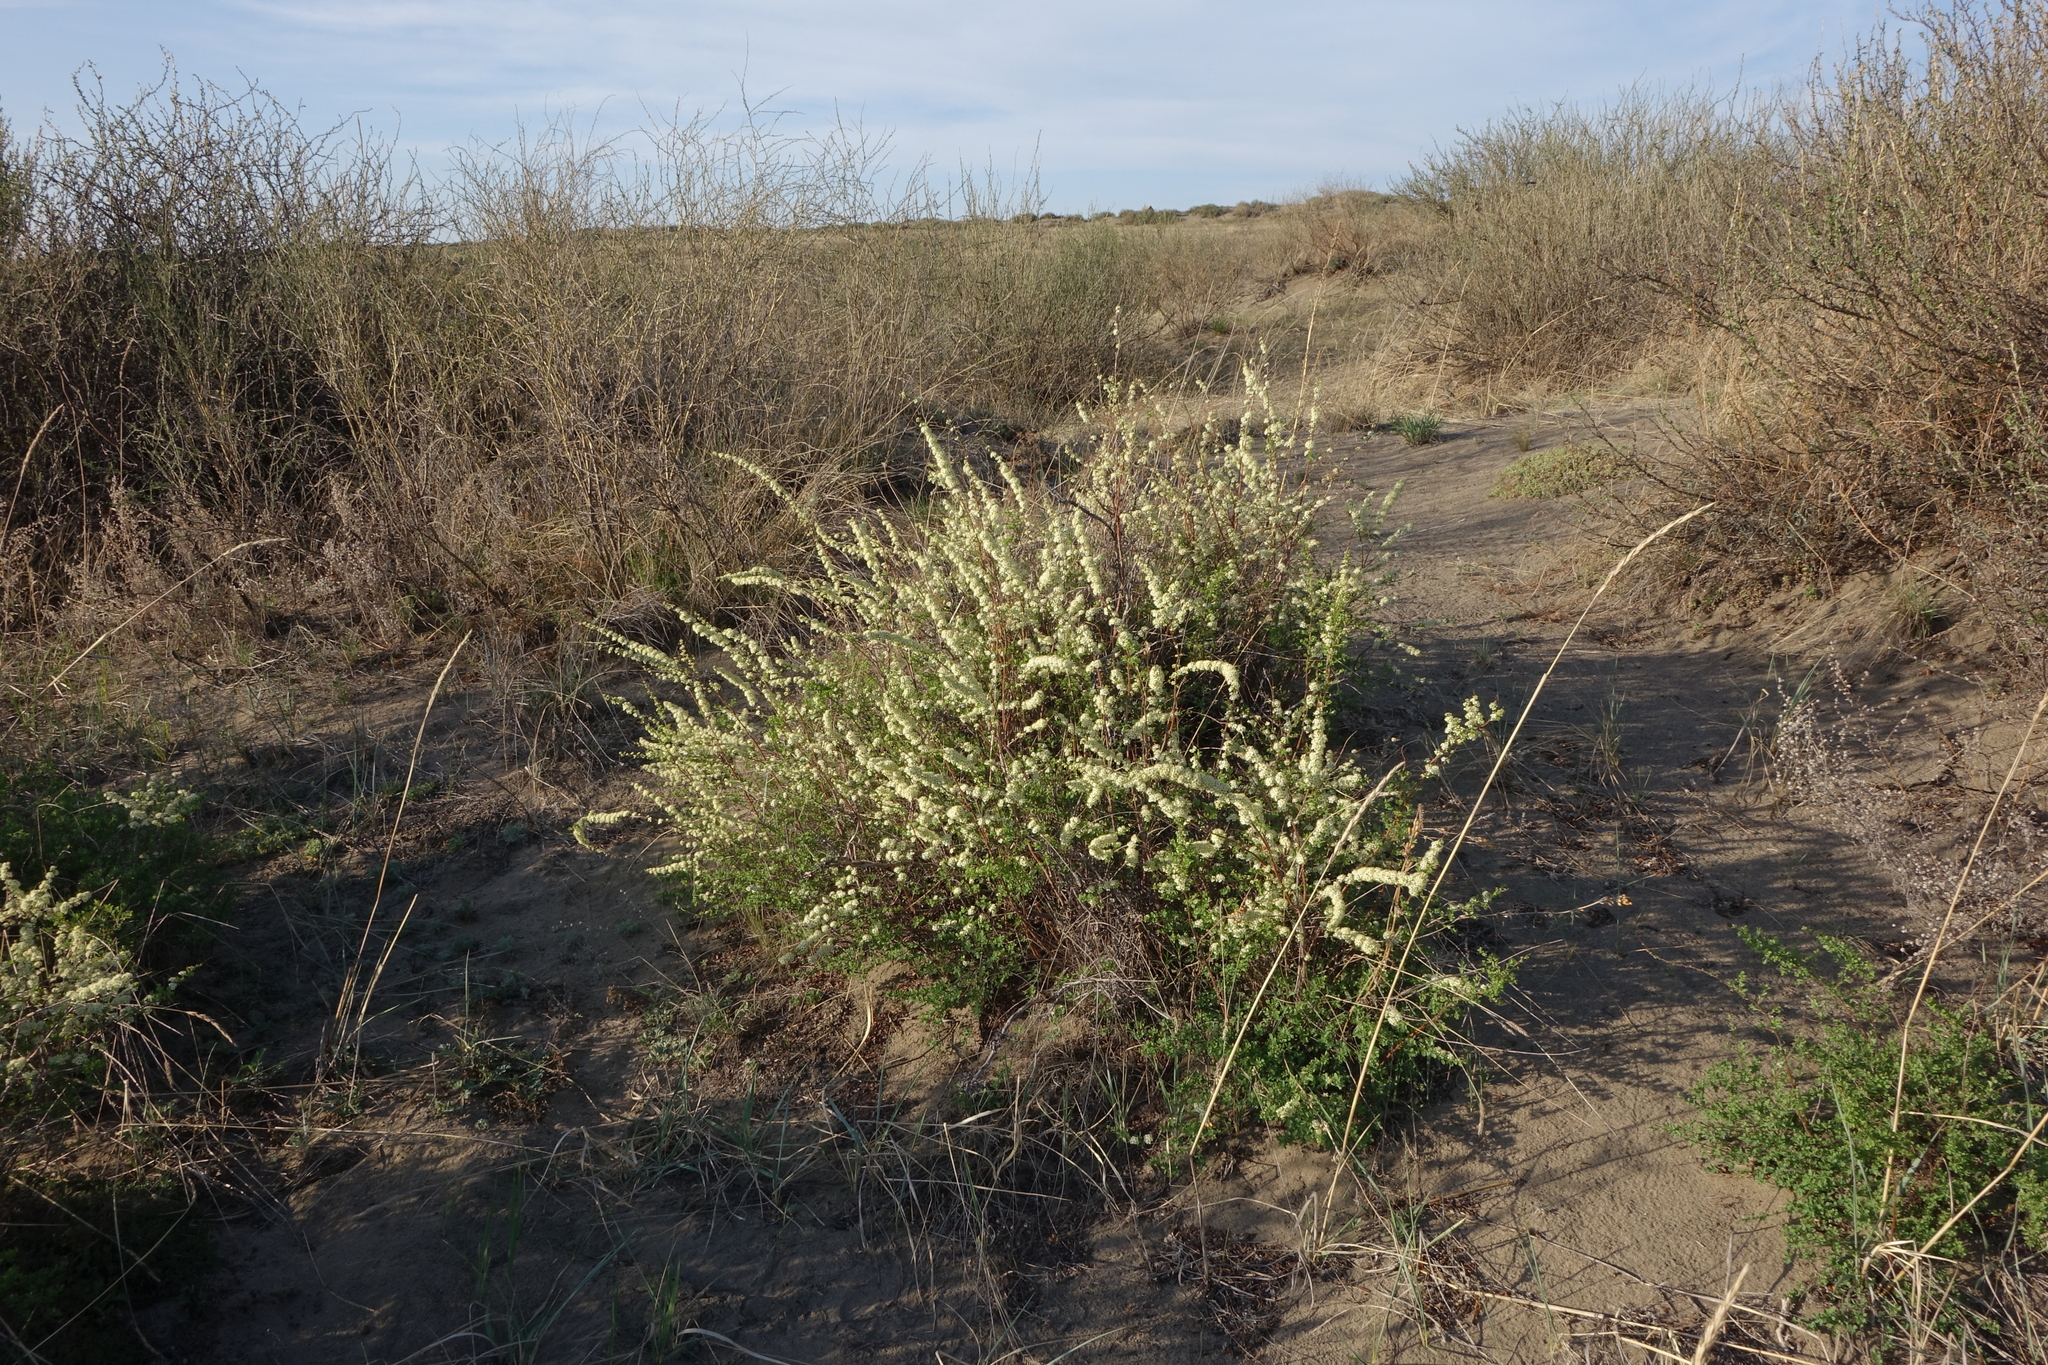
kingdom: Plantae
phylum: Tracheophyta
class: Magnoliopsida
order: Rosales
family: Rosaceae
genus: Spiraea
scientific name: Spiraea hypericifolia
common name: Iberian spirea
